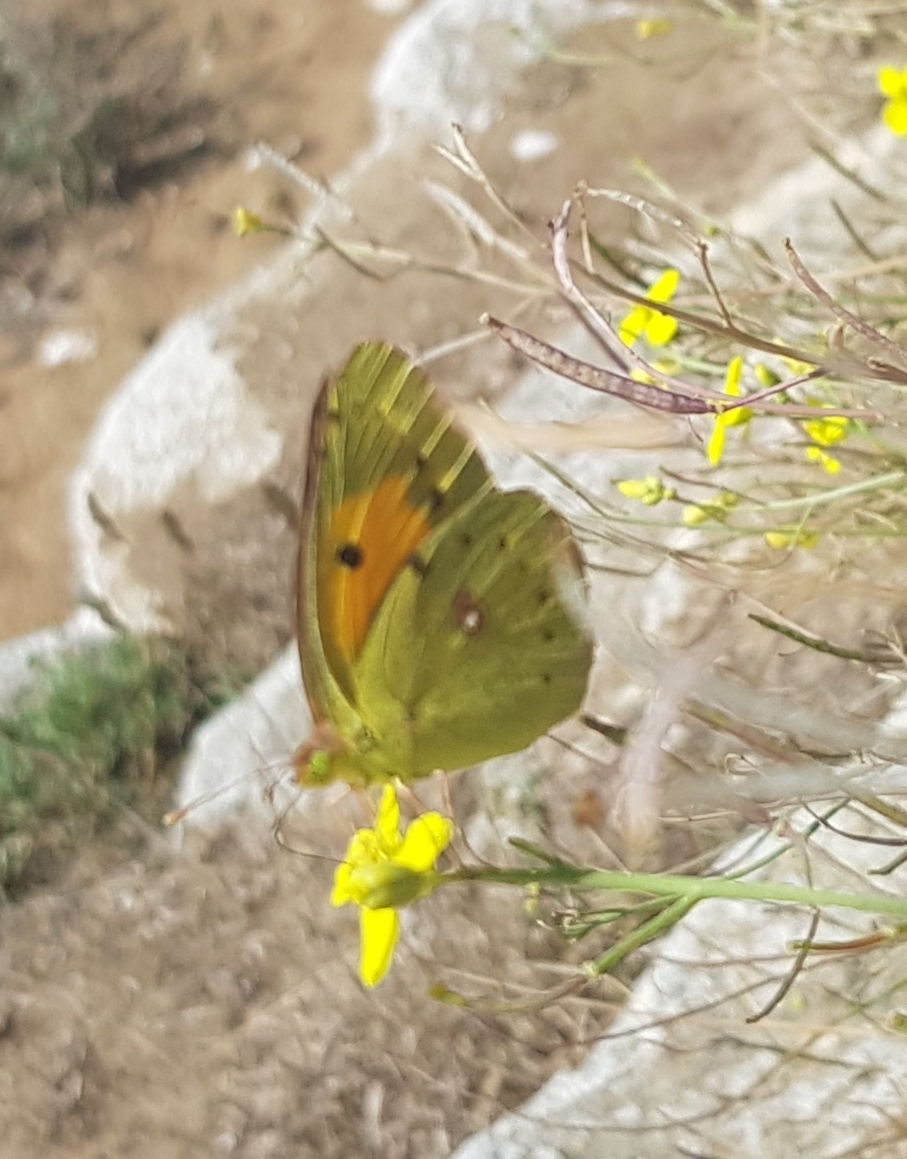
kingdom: Animalia
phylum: Arthropoda
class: Insecta
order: Lepidoptera
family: Pieridae
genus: Colias
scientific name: Colias croceus
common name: Clouded yellow
